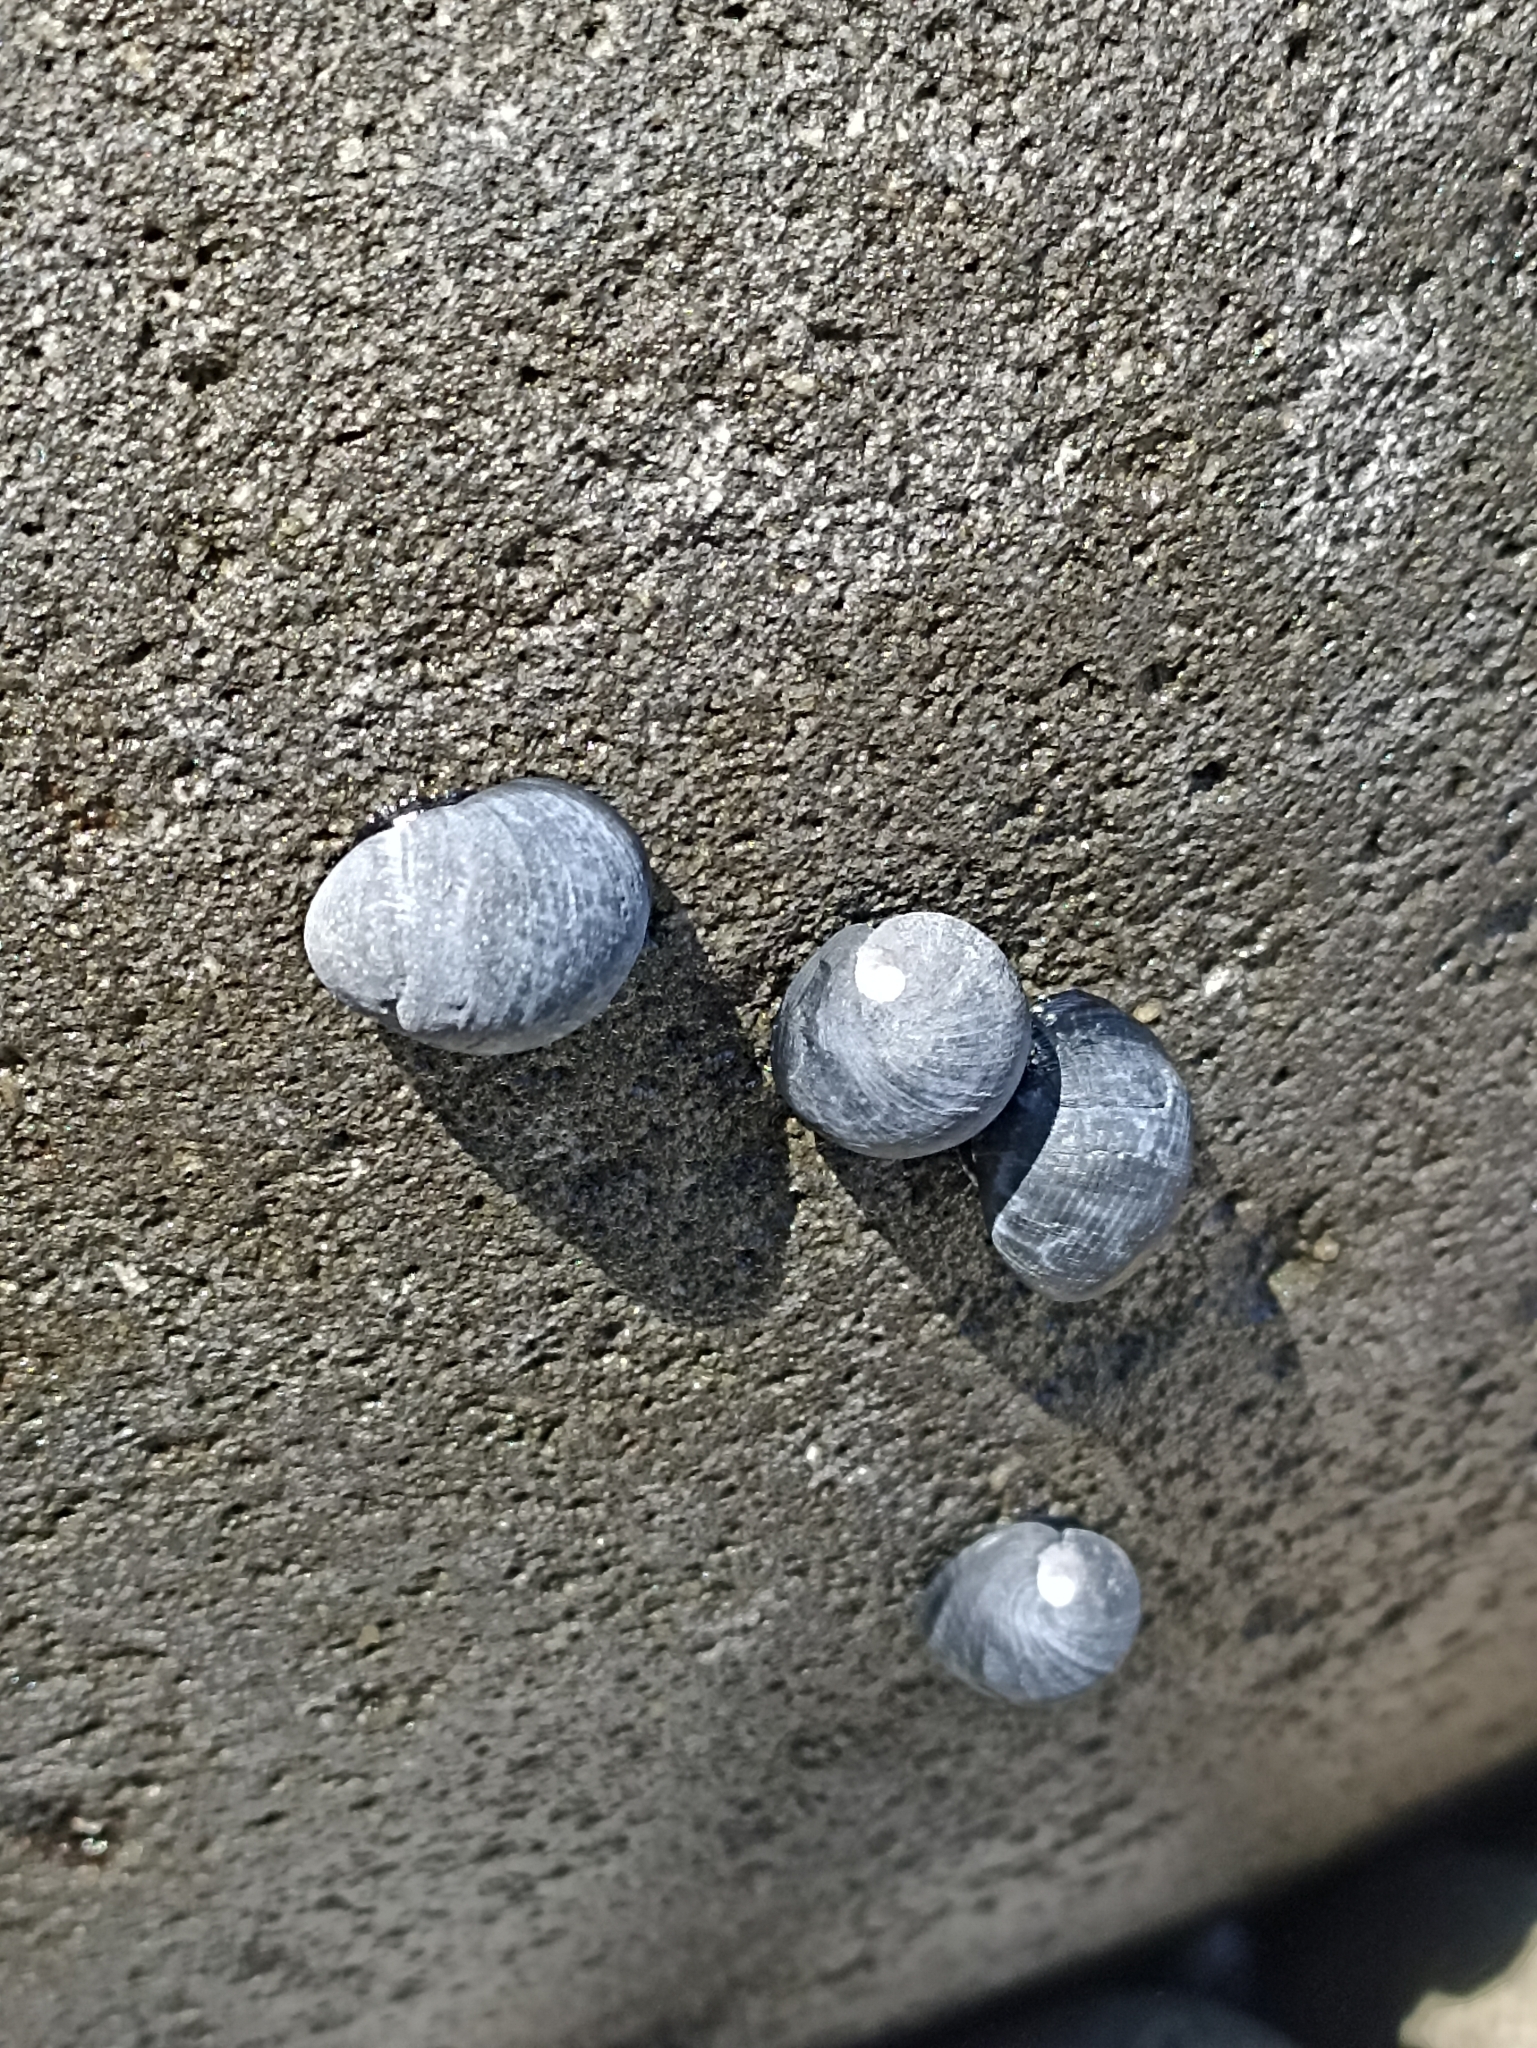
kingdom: Animalia
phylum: Mollusca
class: Gastropoda
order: Cycloneritida
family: Neritidae
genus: Nerita
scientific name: Nerita melanotragus
